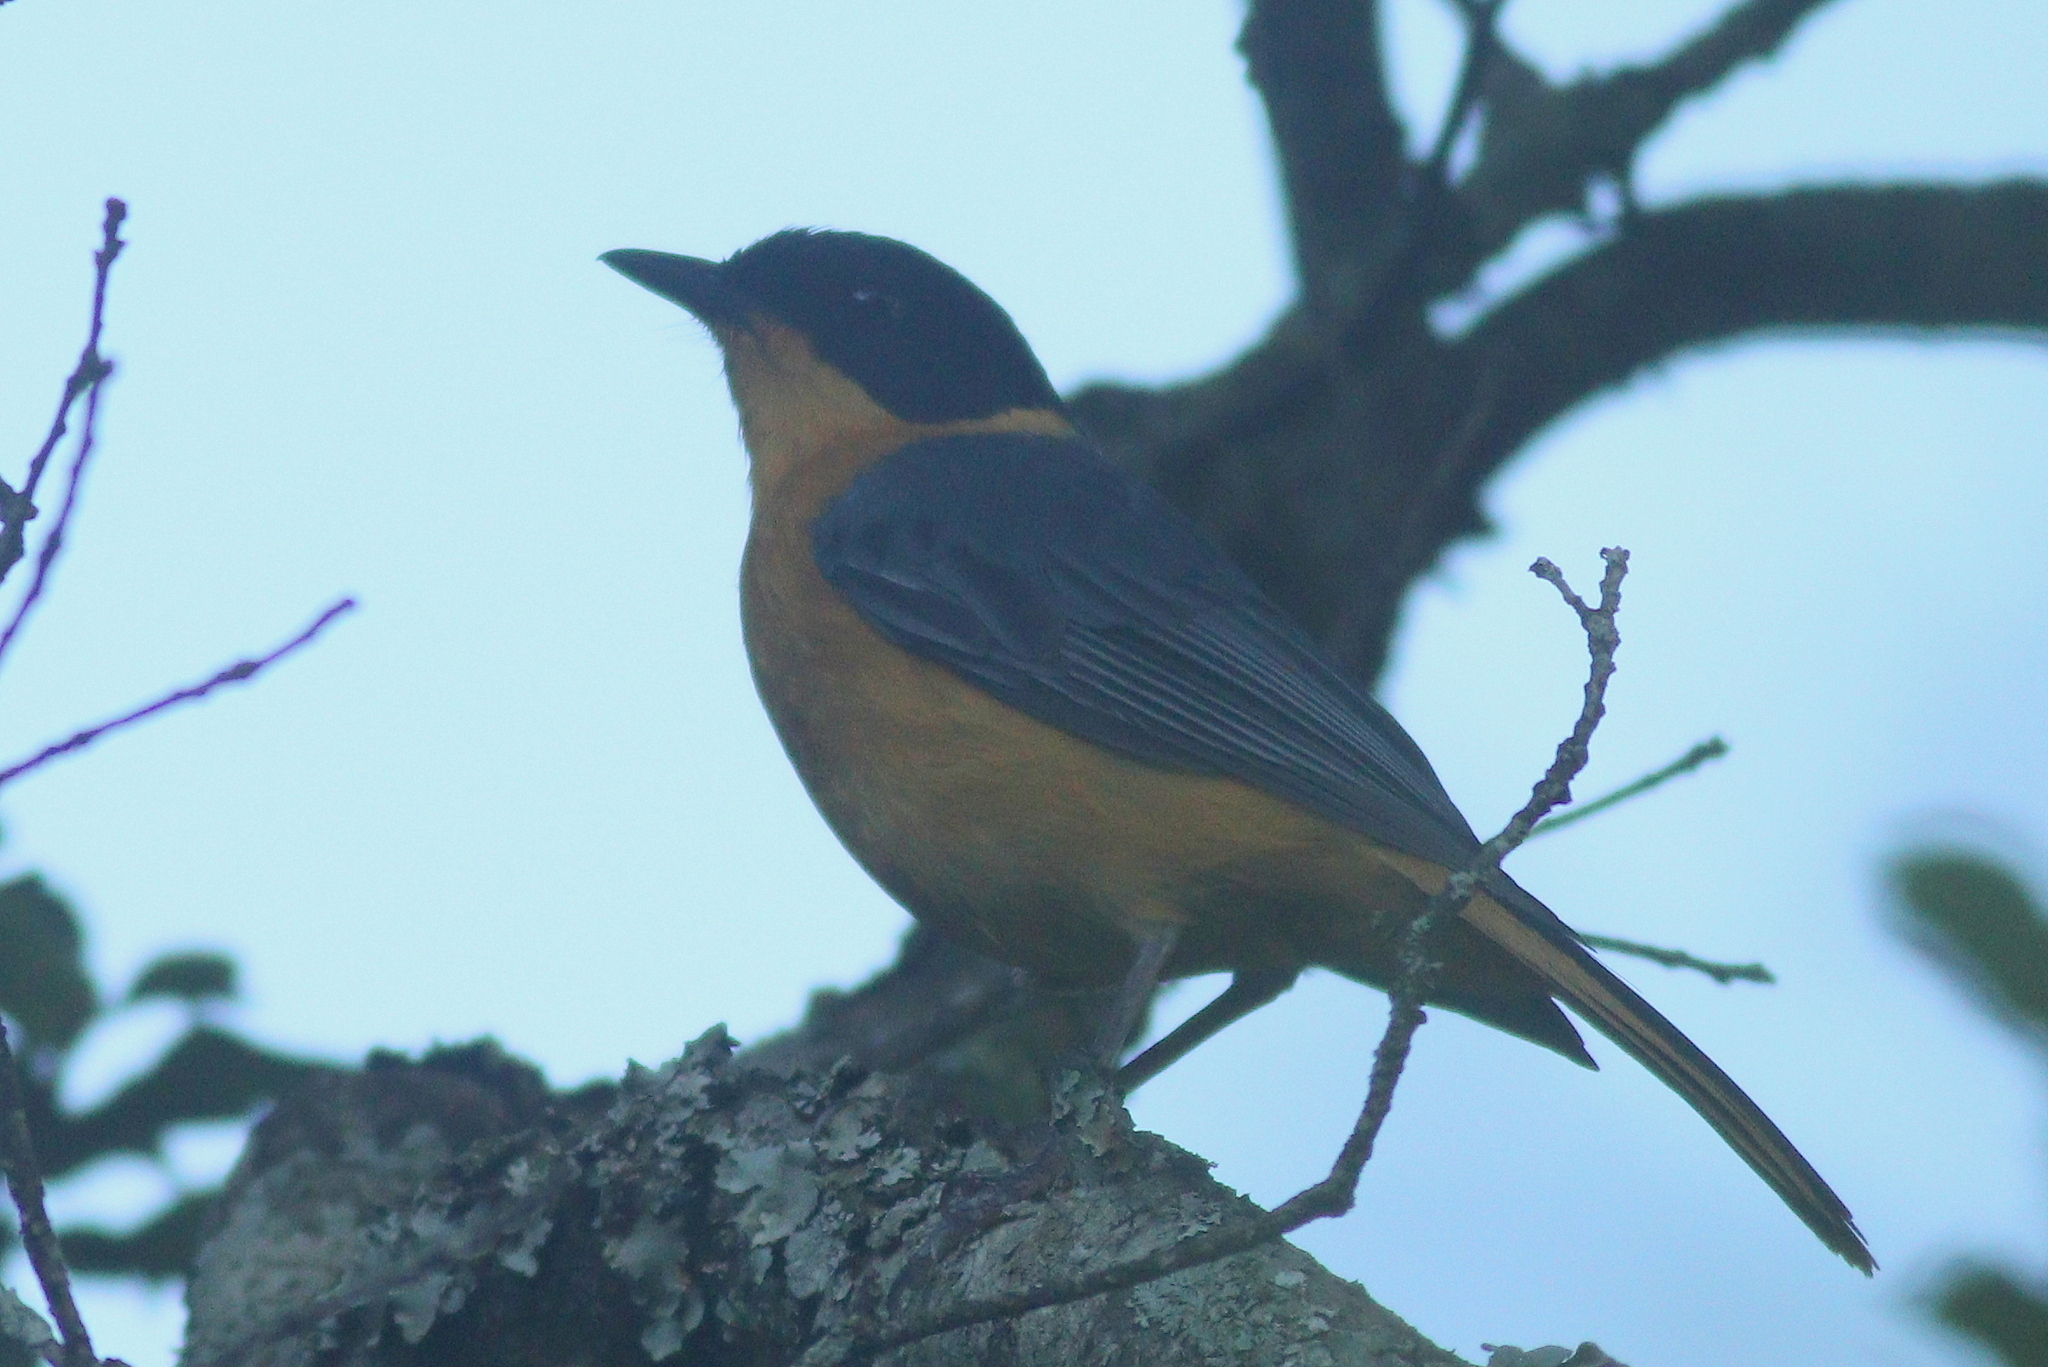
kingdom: Animalia
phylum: Chordata
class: Aves
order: Passeriformes
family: Muscicapidae
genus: Cossypha
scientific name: Cossypha dichroa
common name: Chorister robin-chat
